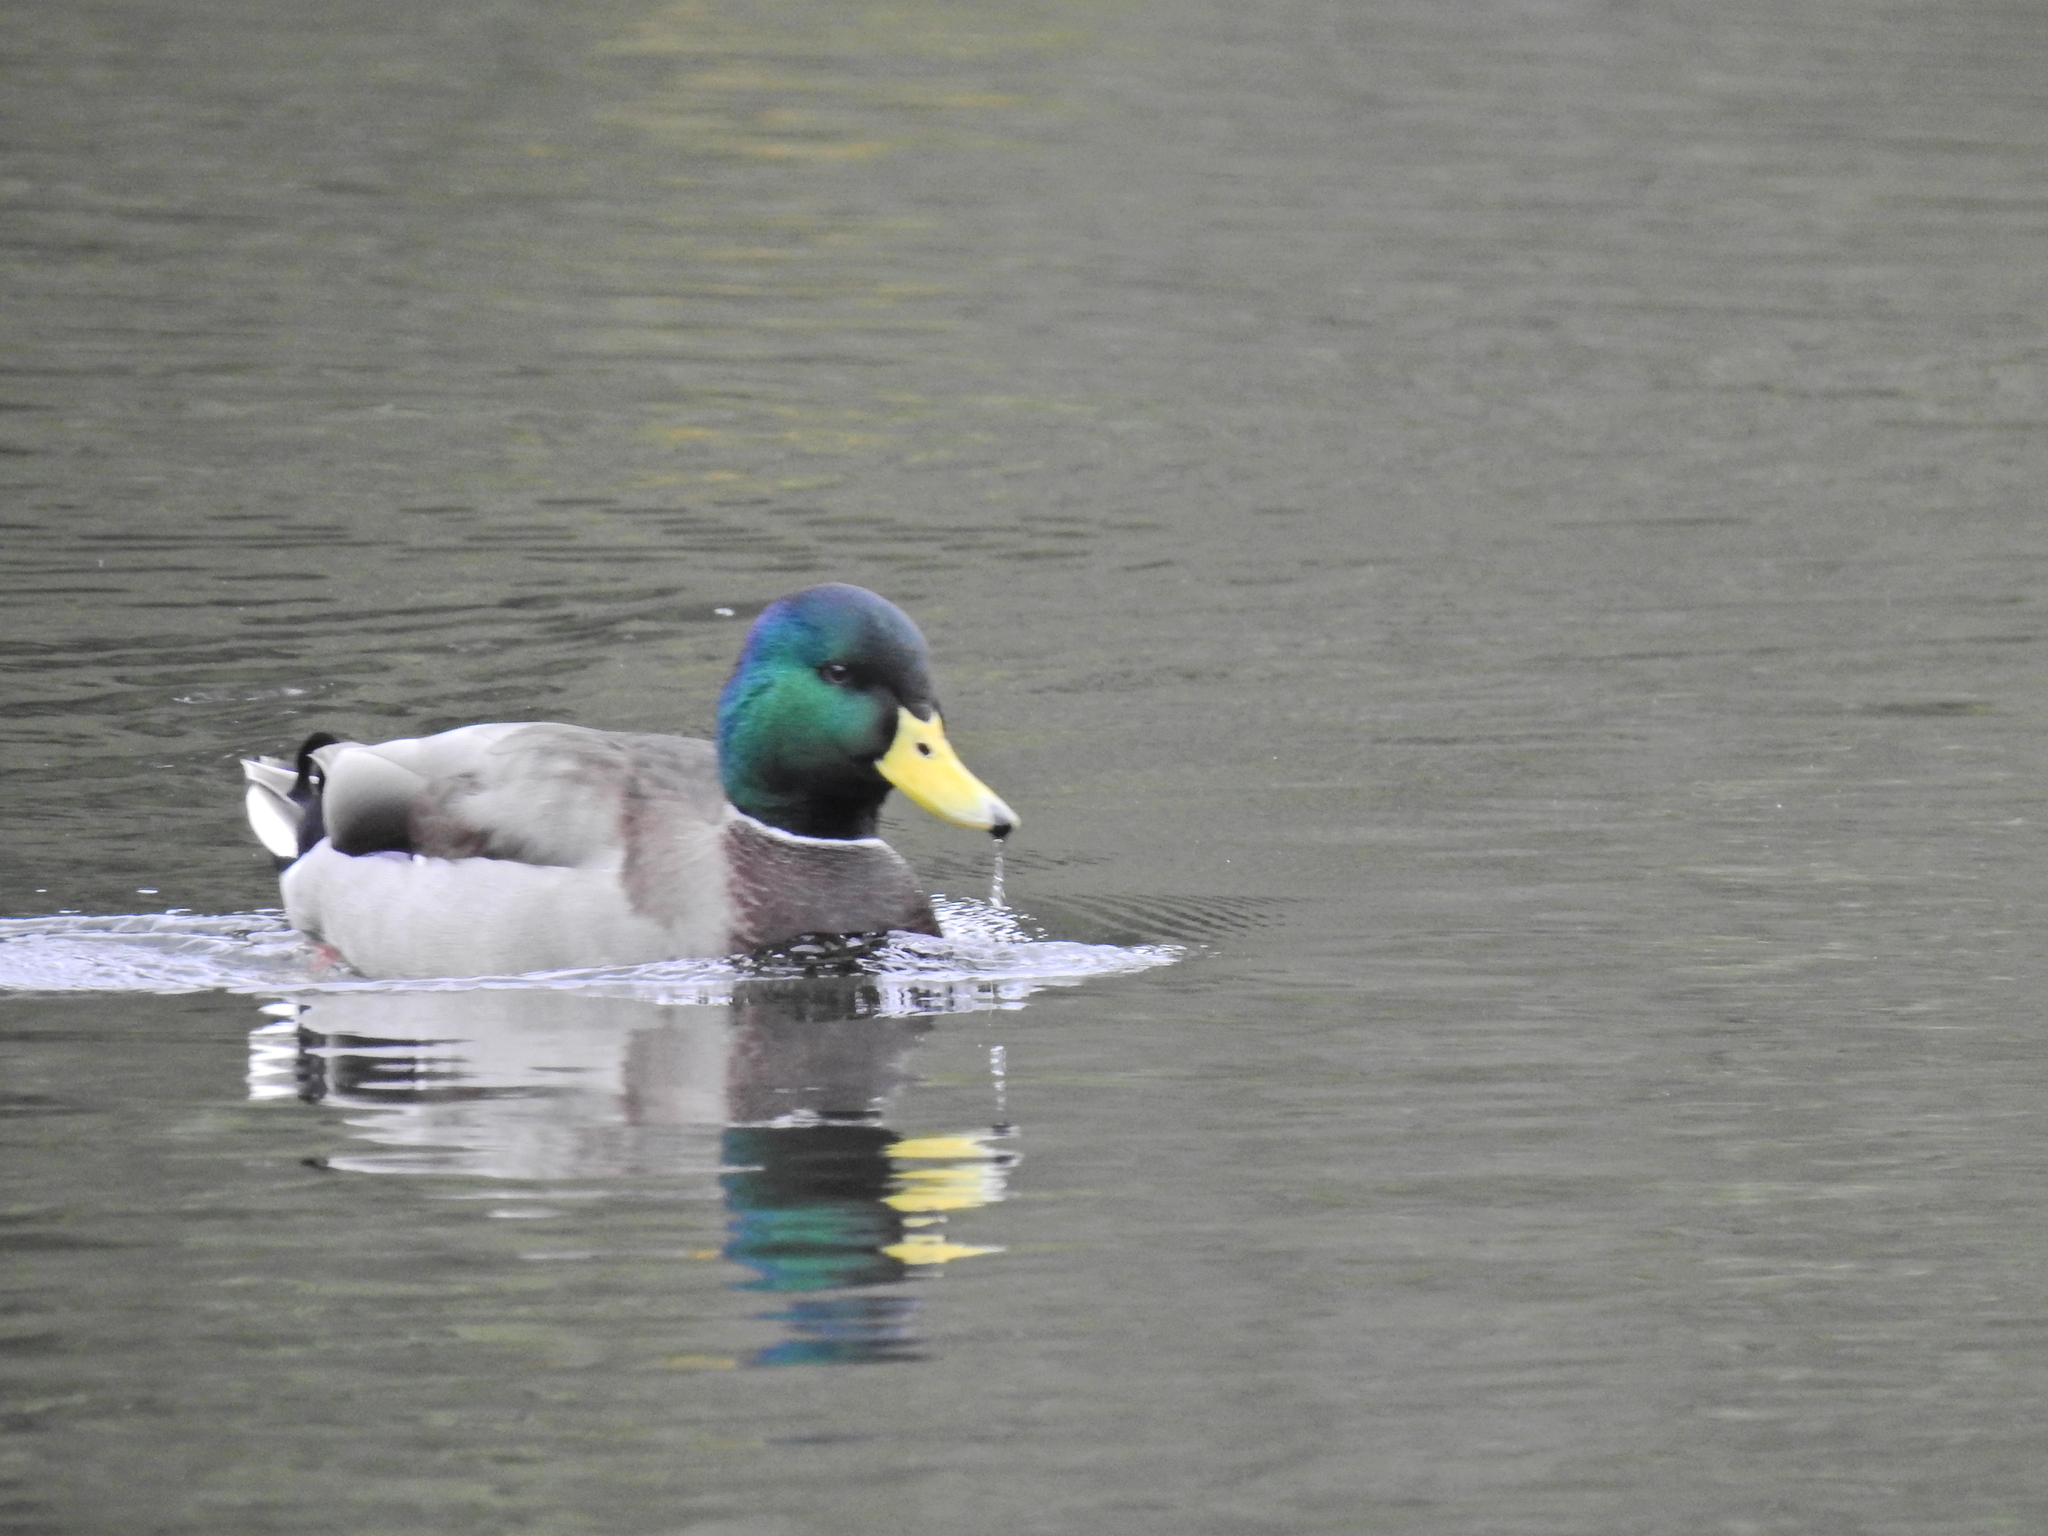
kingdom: Animalia
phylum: Chordata
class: Aves
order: Anseriformes
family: Anatidae
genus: Anas
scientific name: Anas platyrhynchos
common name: Mallard
